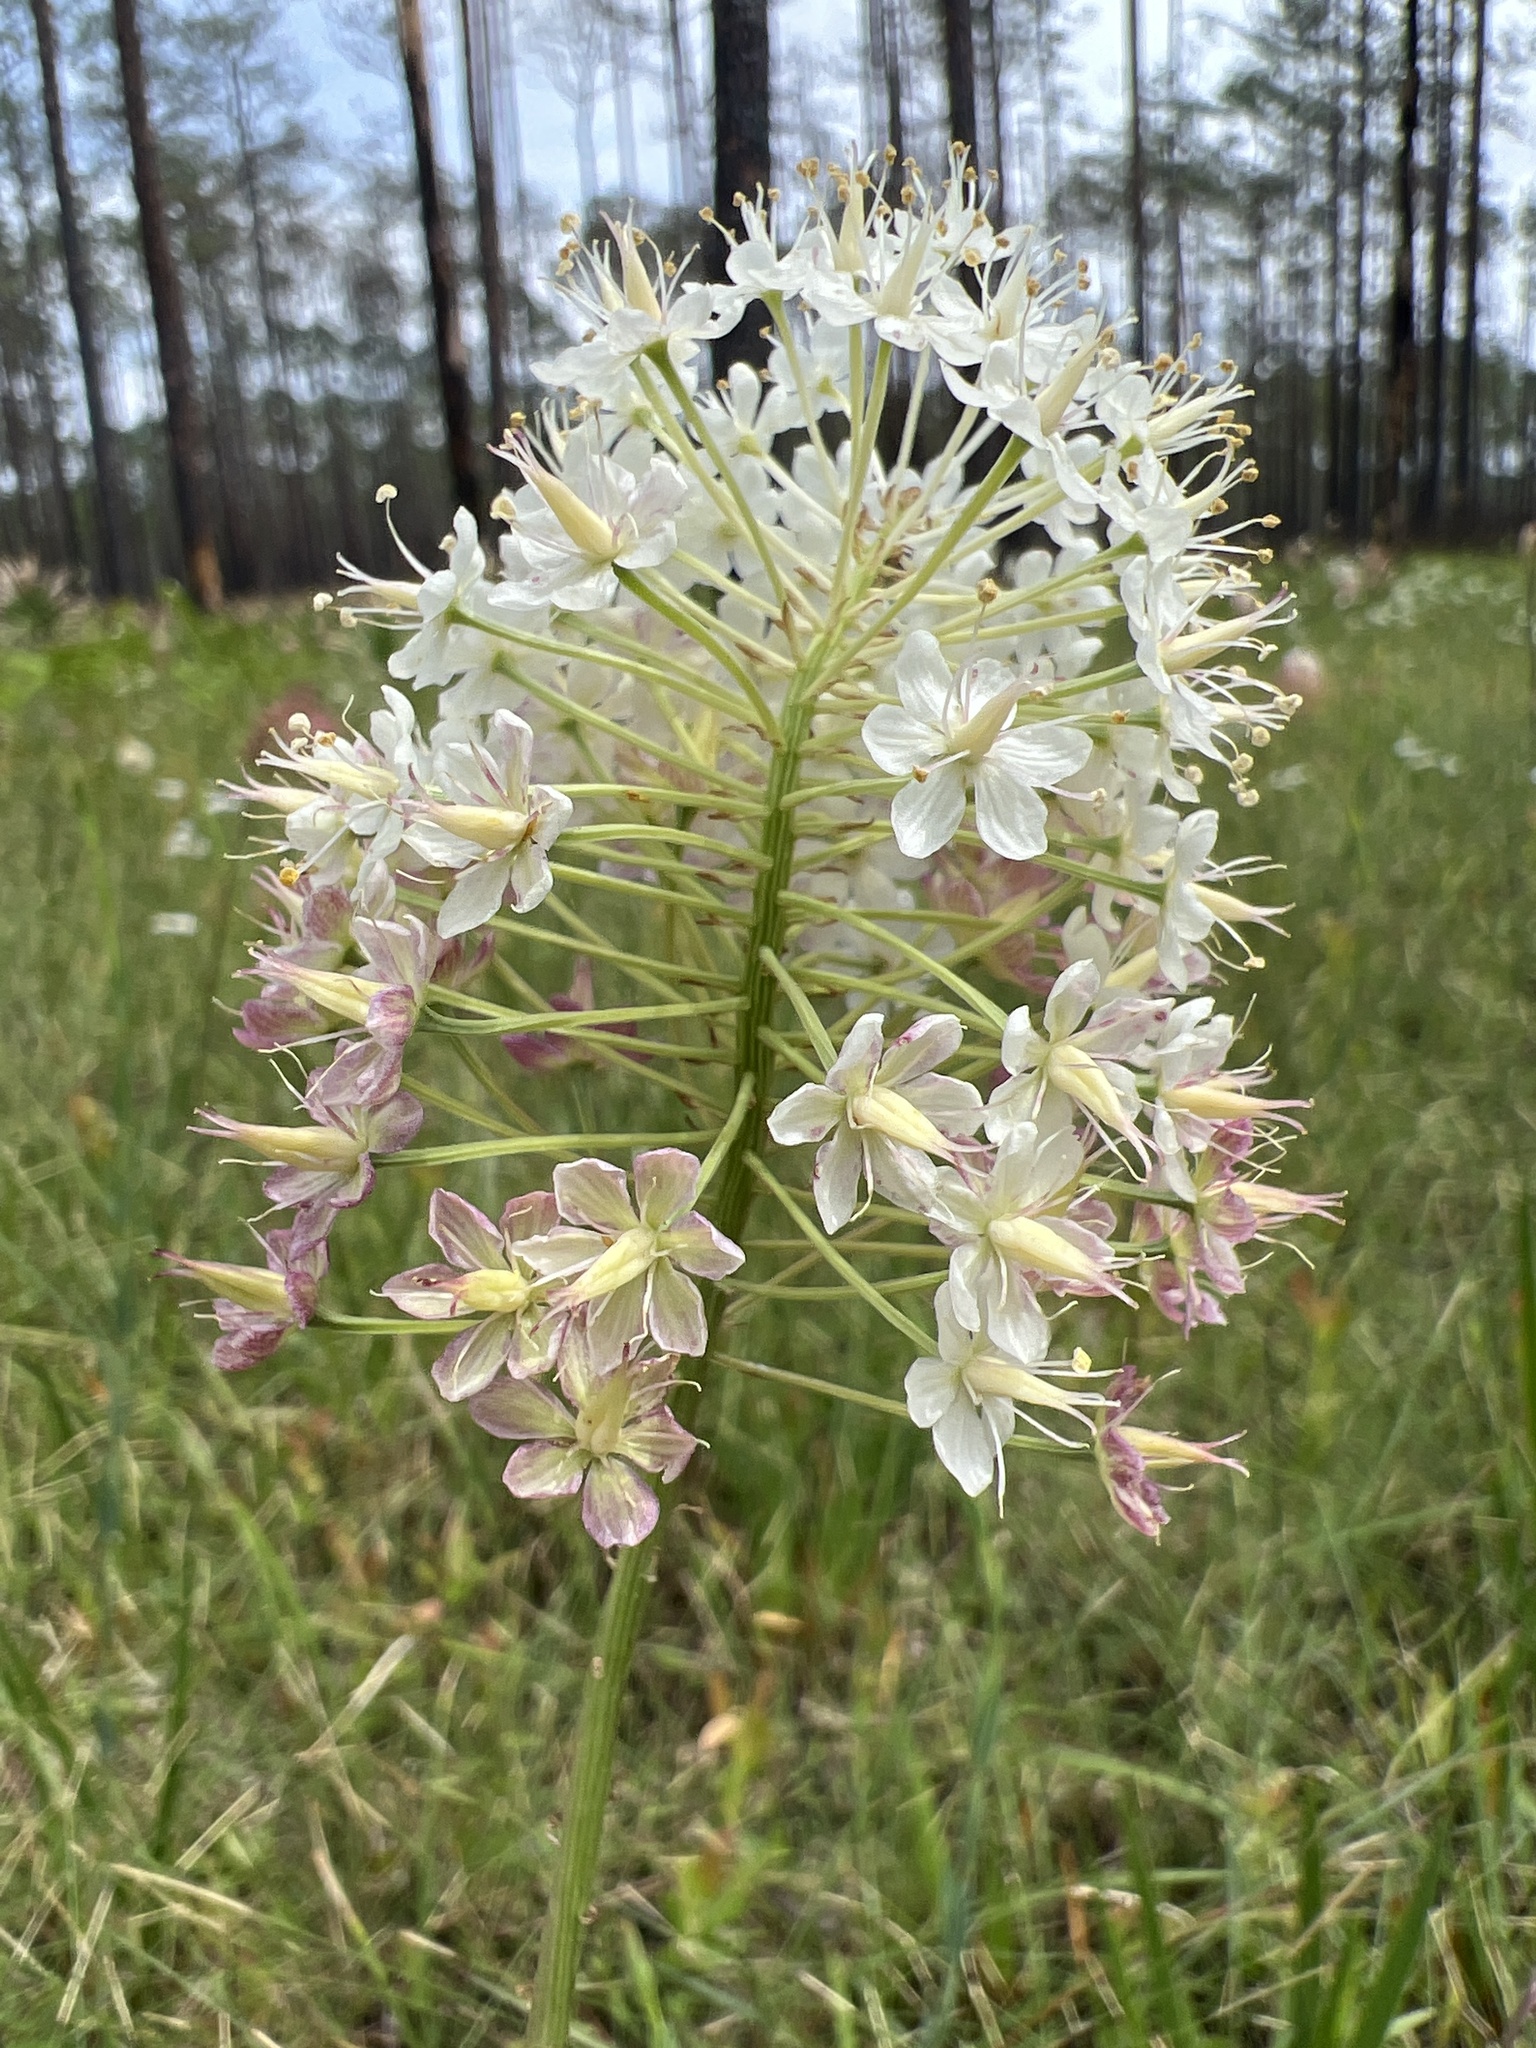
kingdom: Plantae
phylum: Tracheophyta
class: Liliopsida
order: Liliales
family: Melanthiaceae
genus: Stenanthium
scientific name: Stenanthium densum
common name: Crow-poison
